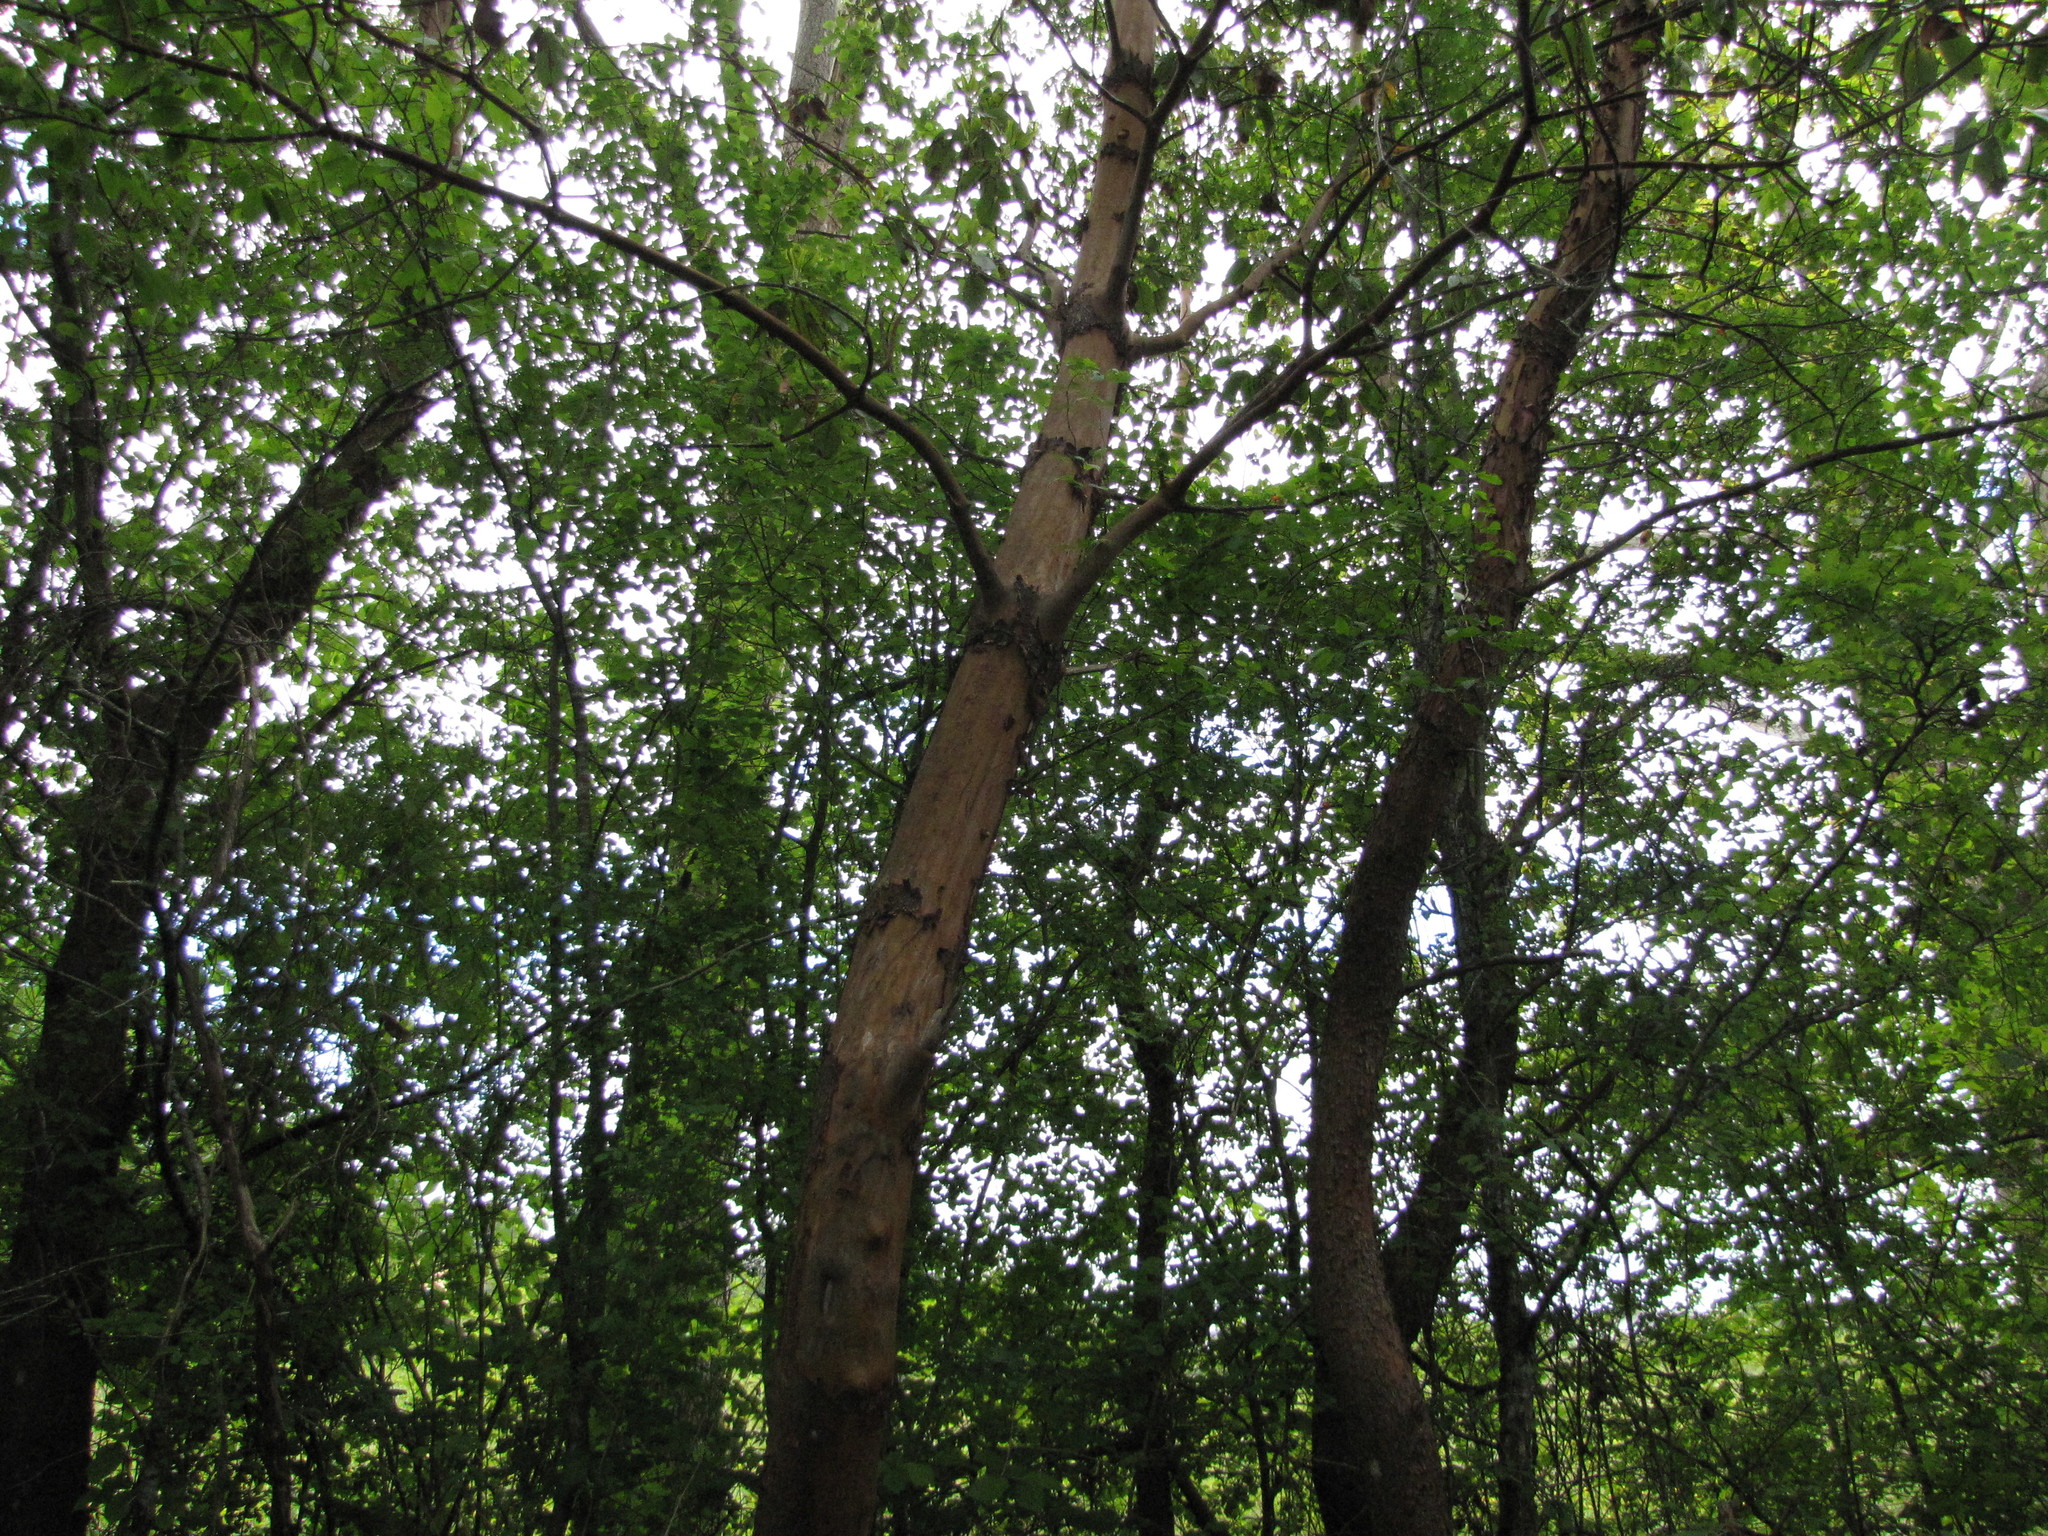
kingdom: Plantae
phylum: Tracheophyta
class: Magnoliopsida
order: Ericales
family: Ericaceae
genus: Arbutus
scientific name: Arbutus menziesii
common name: Pacific madrone
